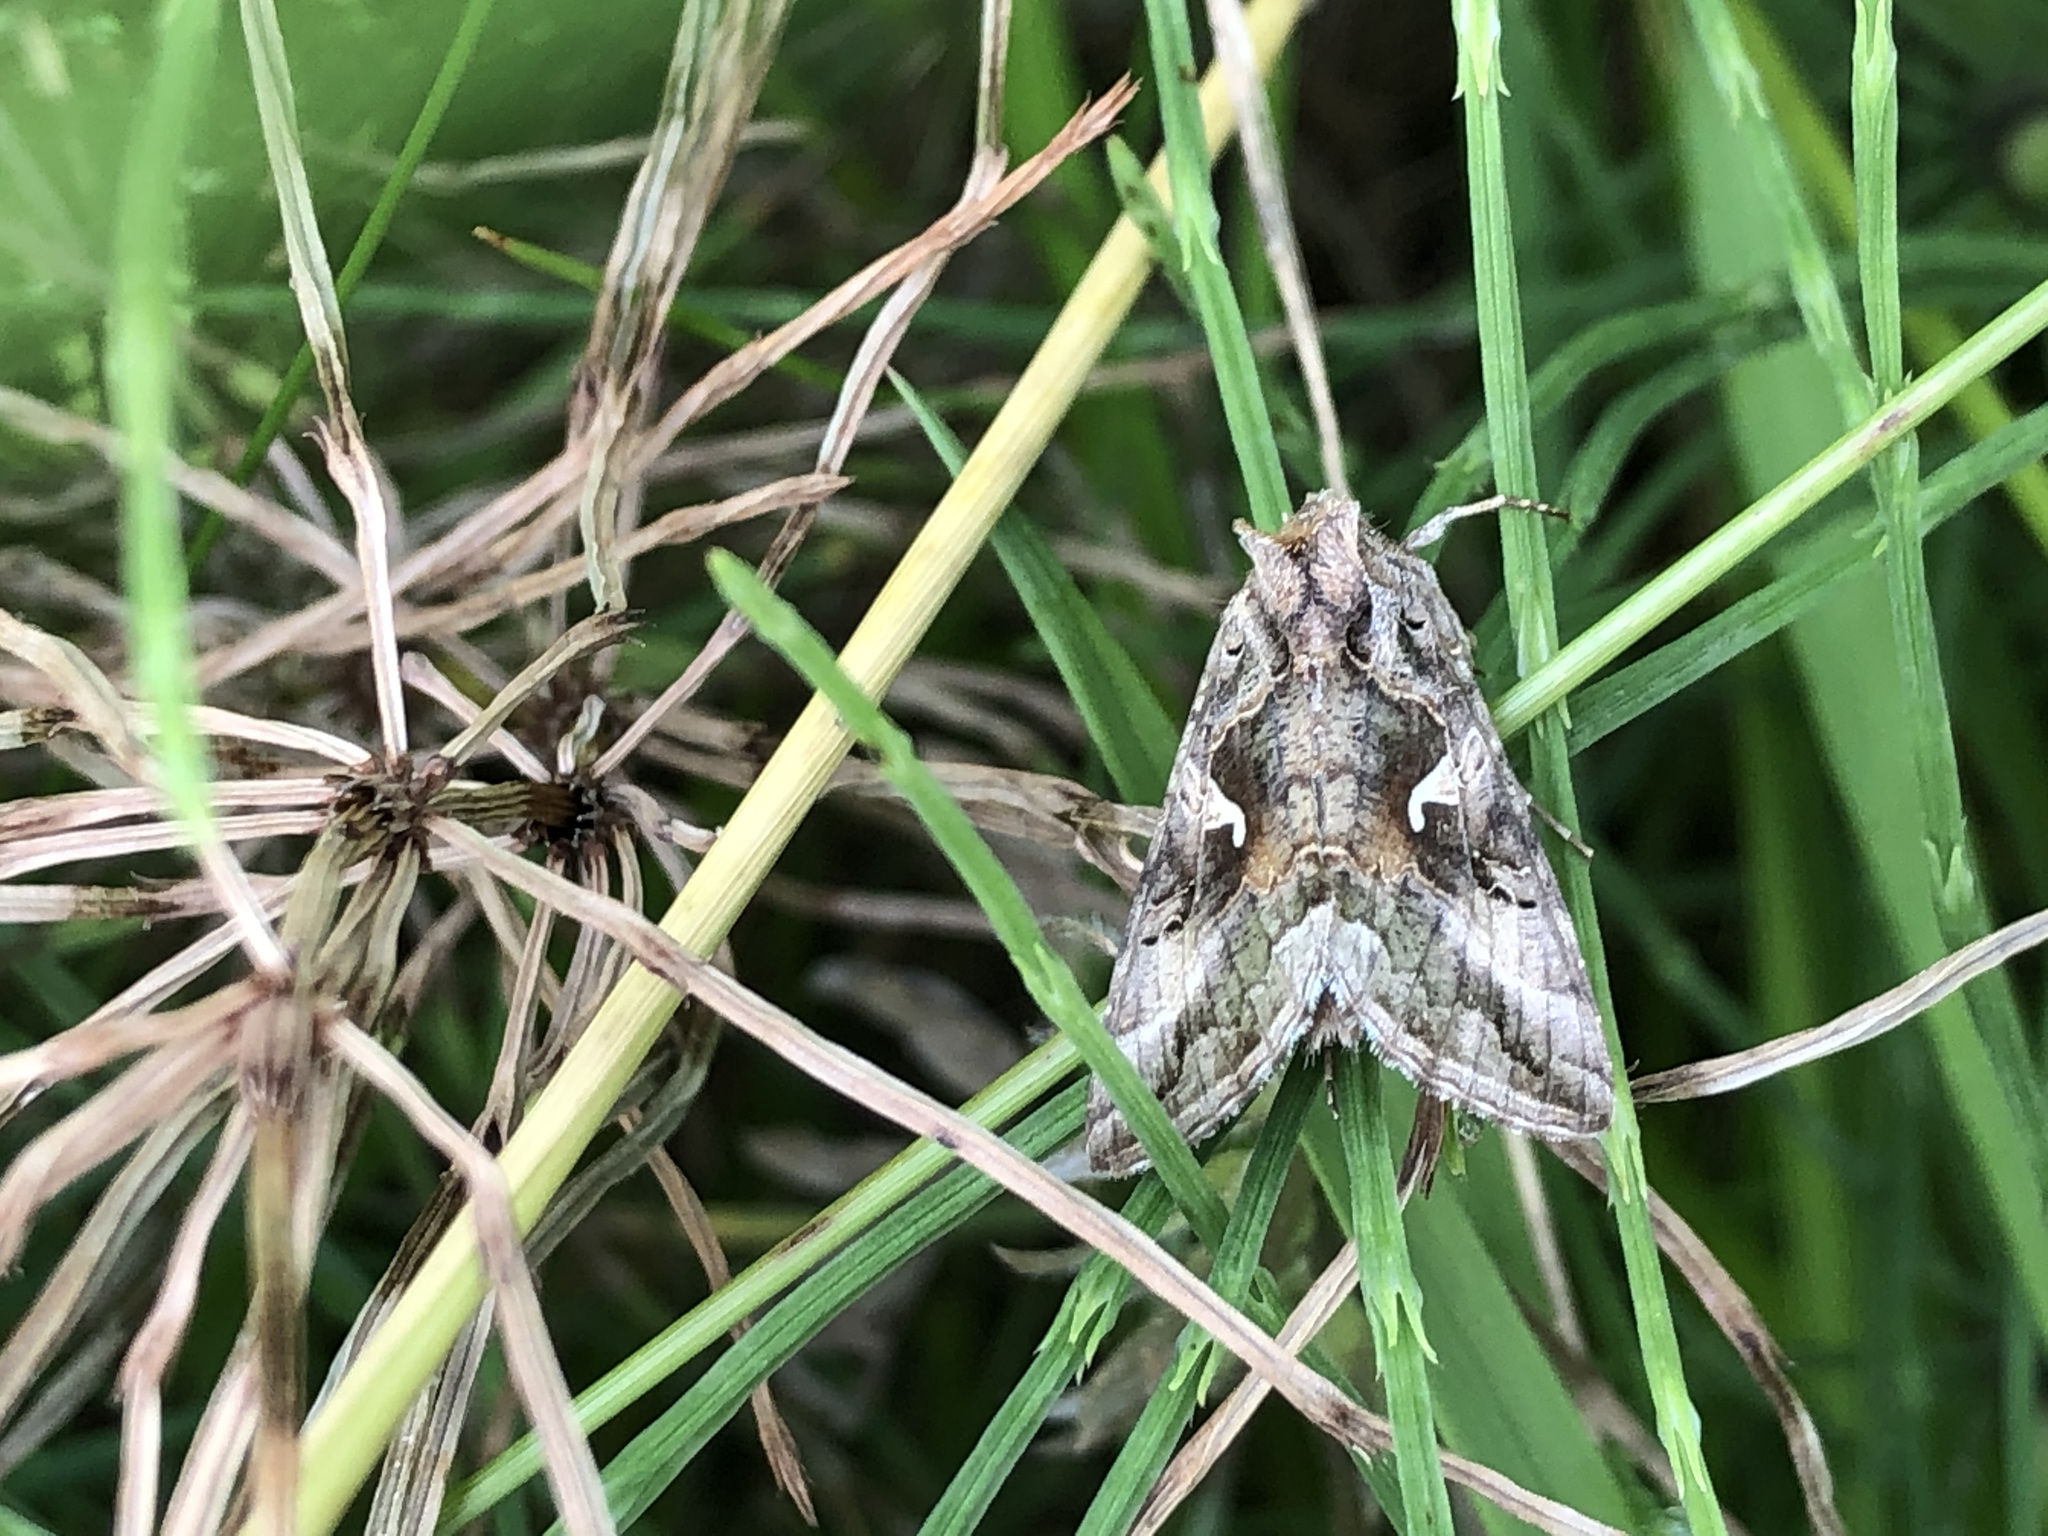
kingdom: Animalia
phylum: Arthropoda
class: Insecta
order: Lepidoptera
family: Noctuidae
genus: Autographa
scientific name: Autographa gamma
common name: Silver y
